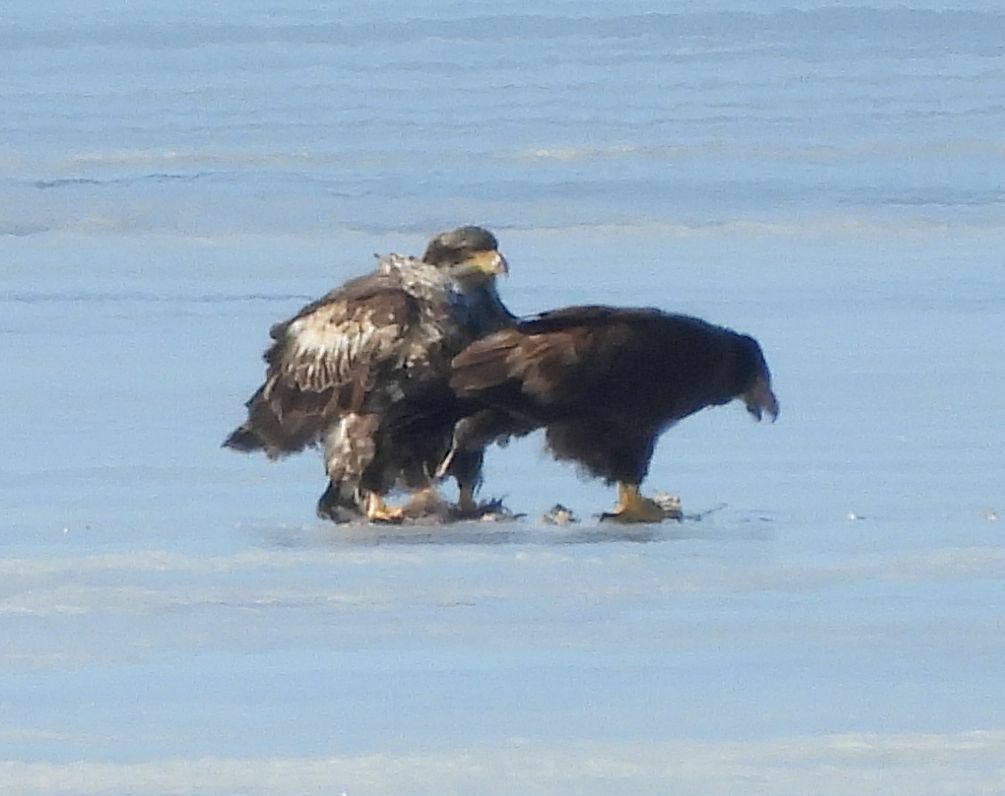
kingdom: Animalia
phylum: Chordata
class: Aves
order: Accipitriformes
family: Accipitridae
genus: Haliaeetus
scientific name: Haliaeetus leucocephalus
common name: Bald eagle
